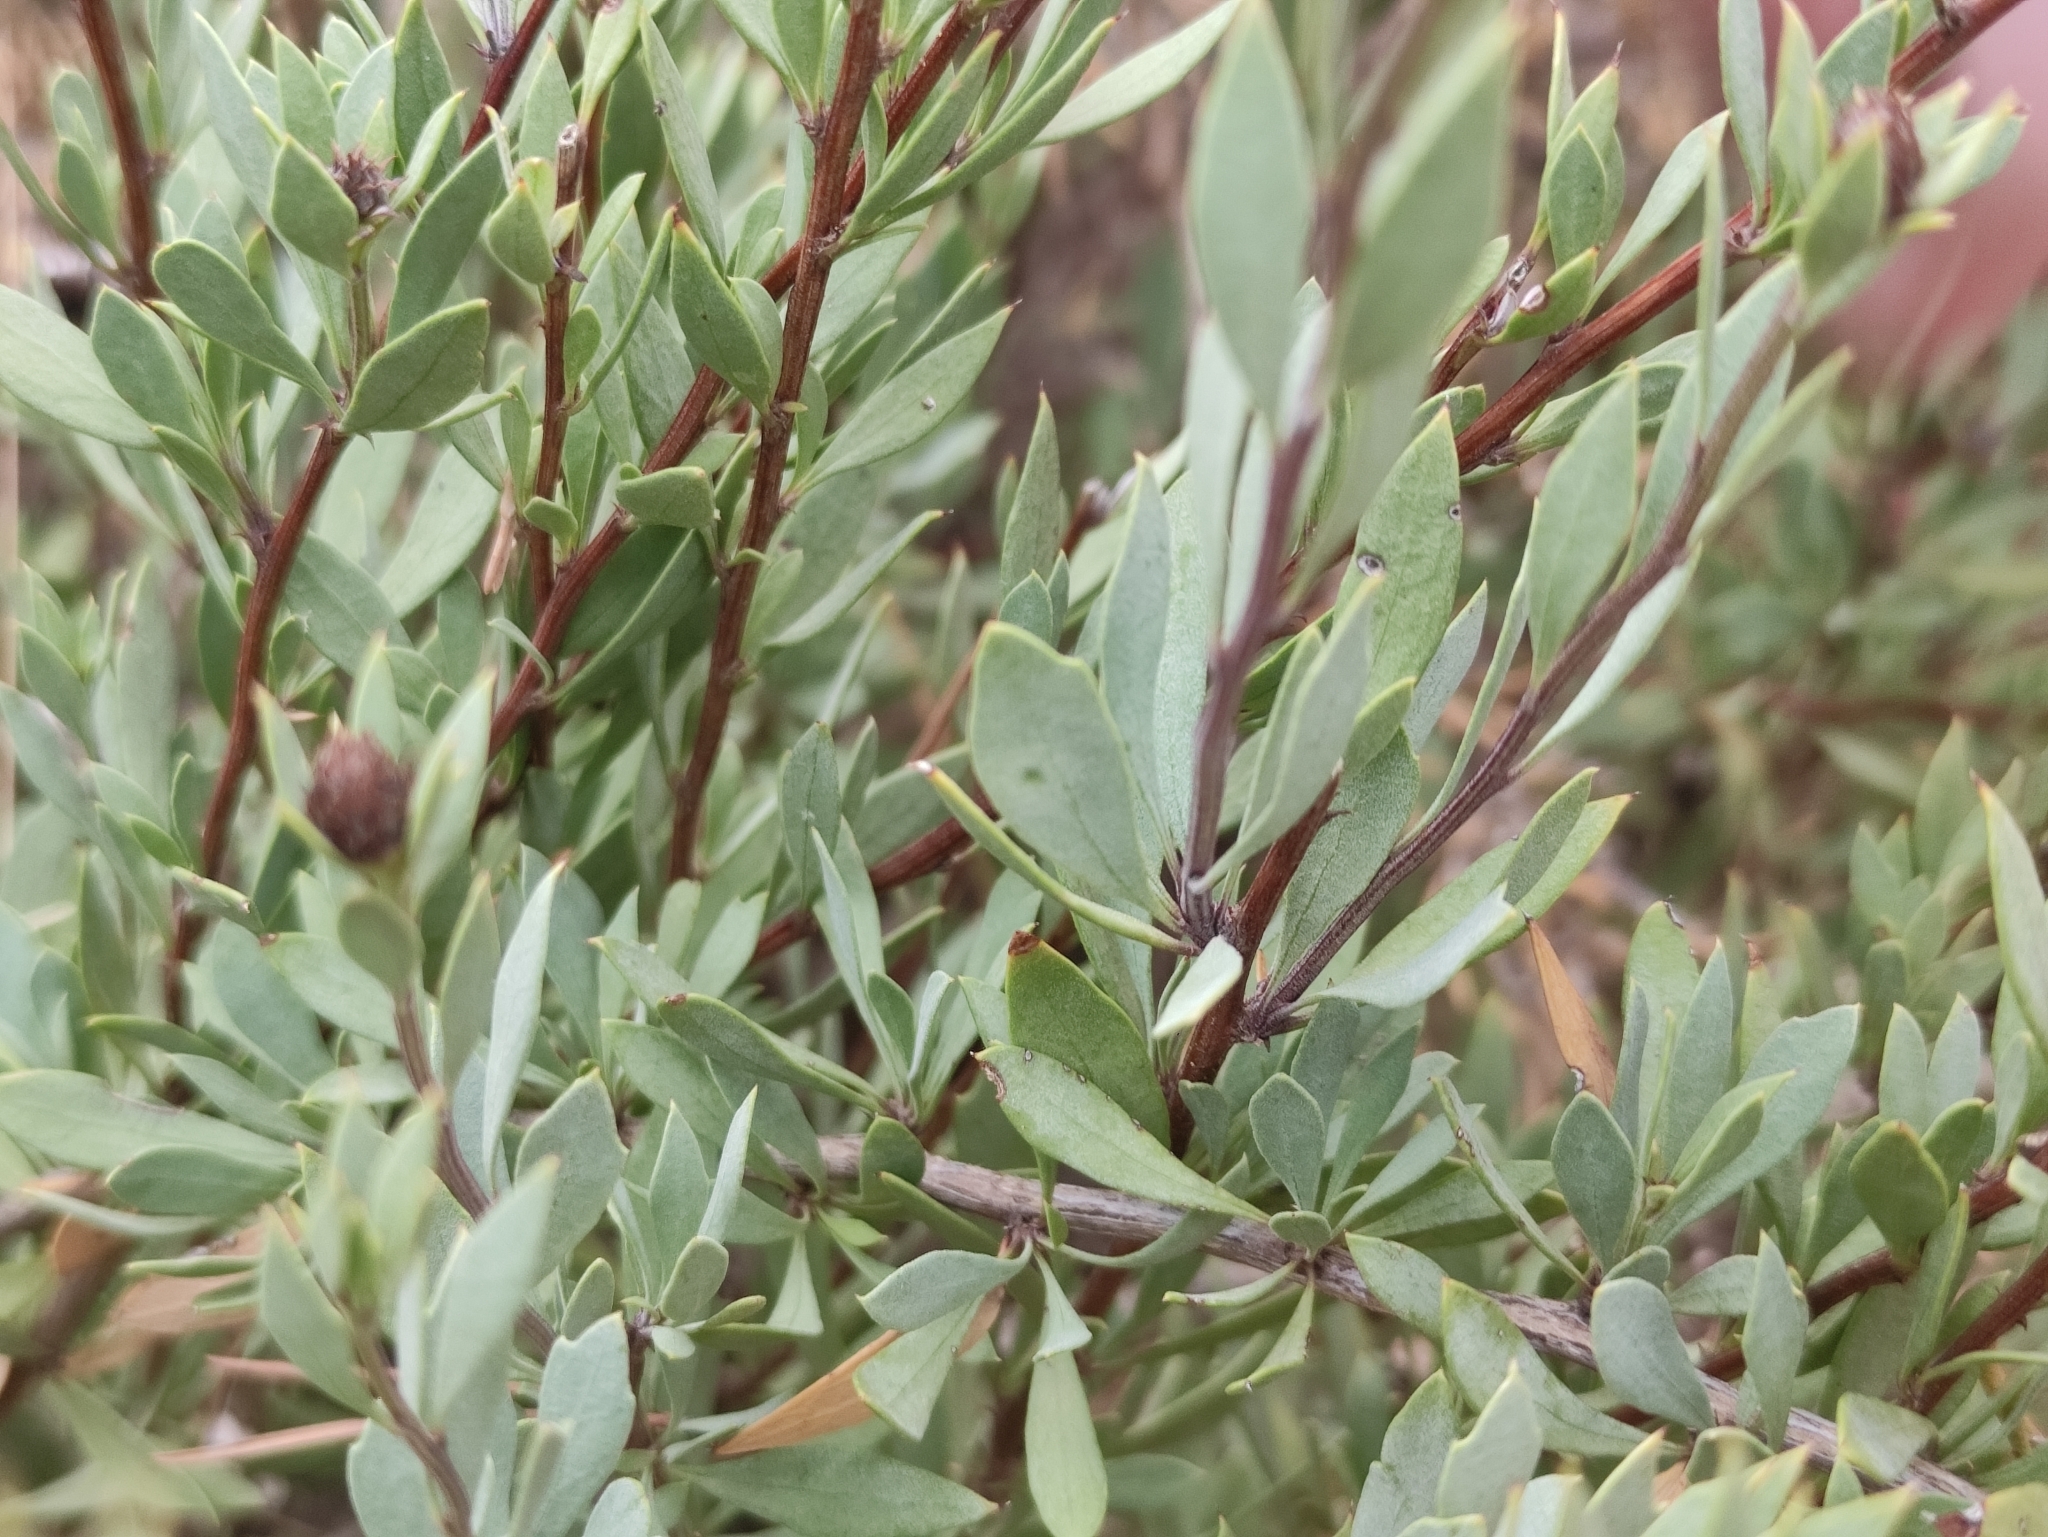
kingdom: Plantae
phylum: Tracheophyta
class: Magnoliopsida
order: Lamiales
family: Plantaginaceae
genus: Globularia
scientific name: Globularia alypum
